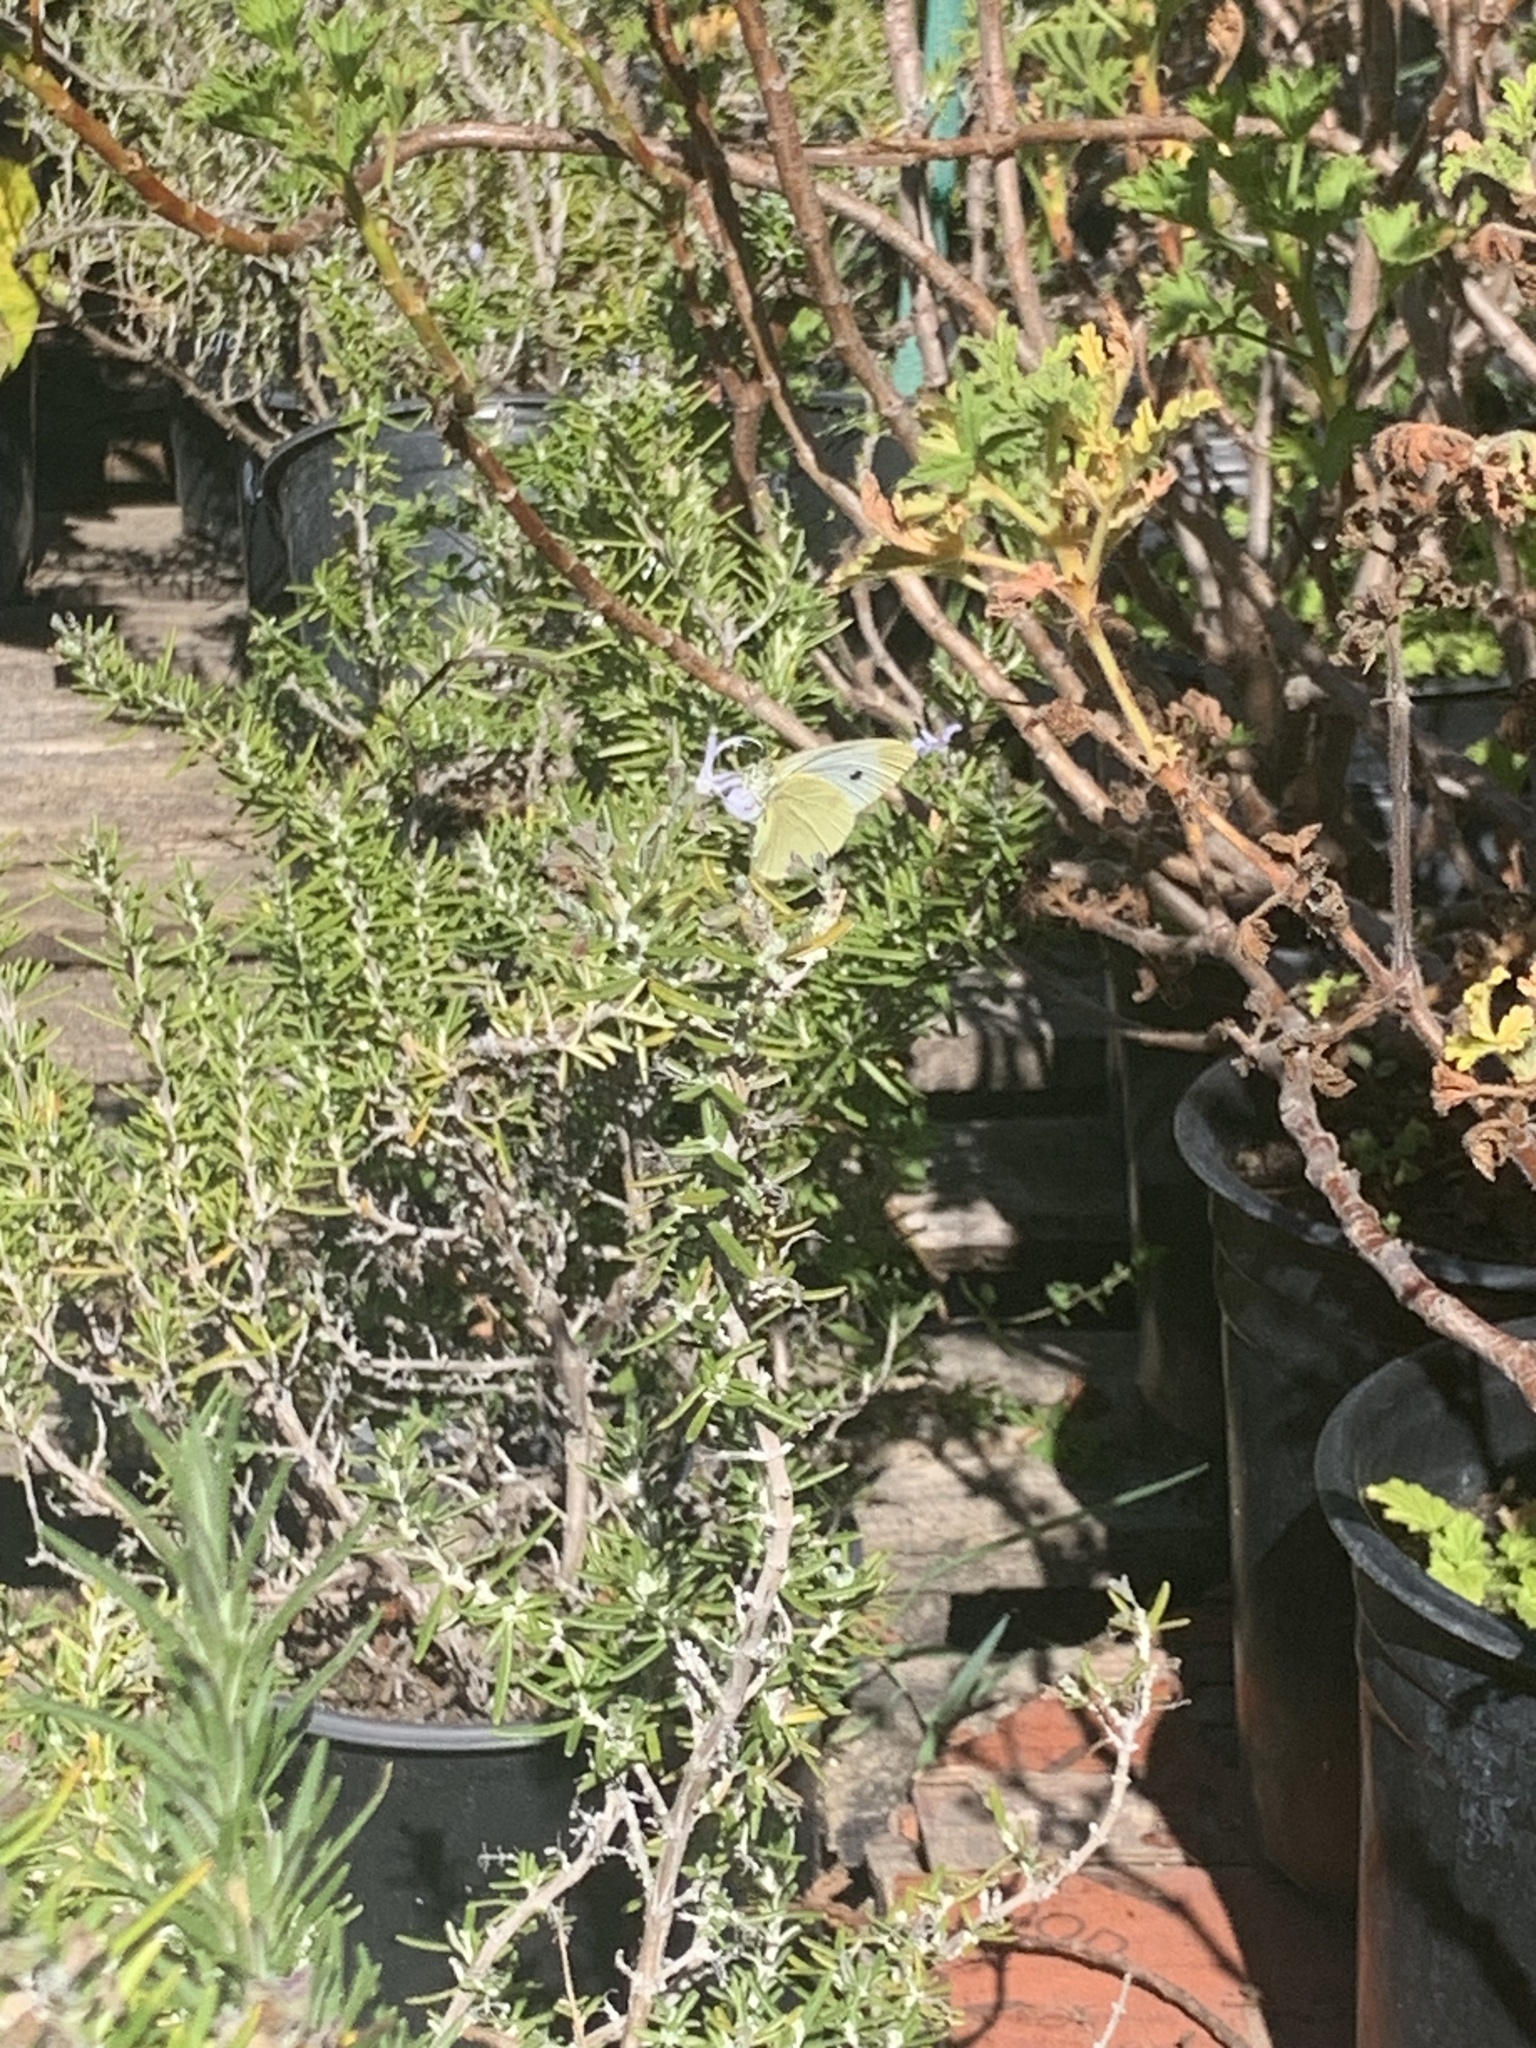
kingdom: Animalia
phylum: Arthropoda
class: Insecta
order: Lepidoptera
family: Pieridae
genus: Pieris
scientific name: Pieris rapae
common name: Small white
